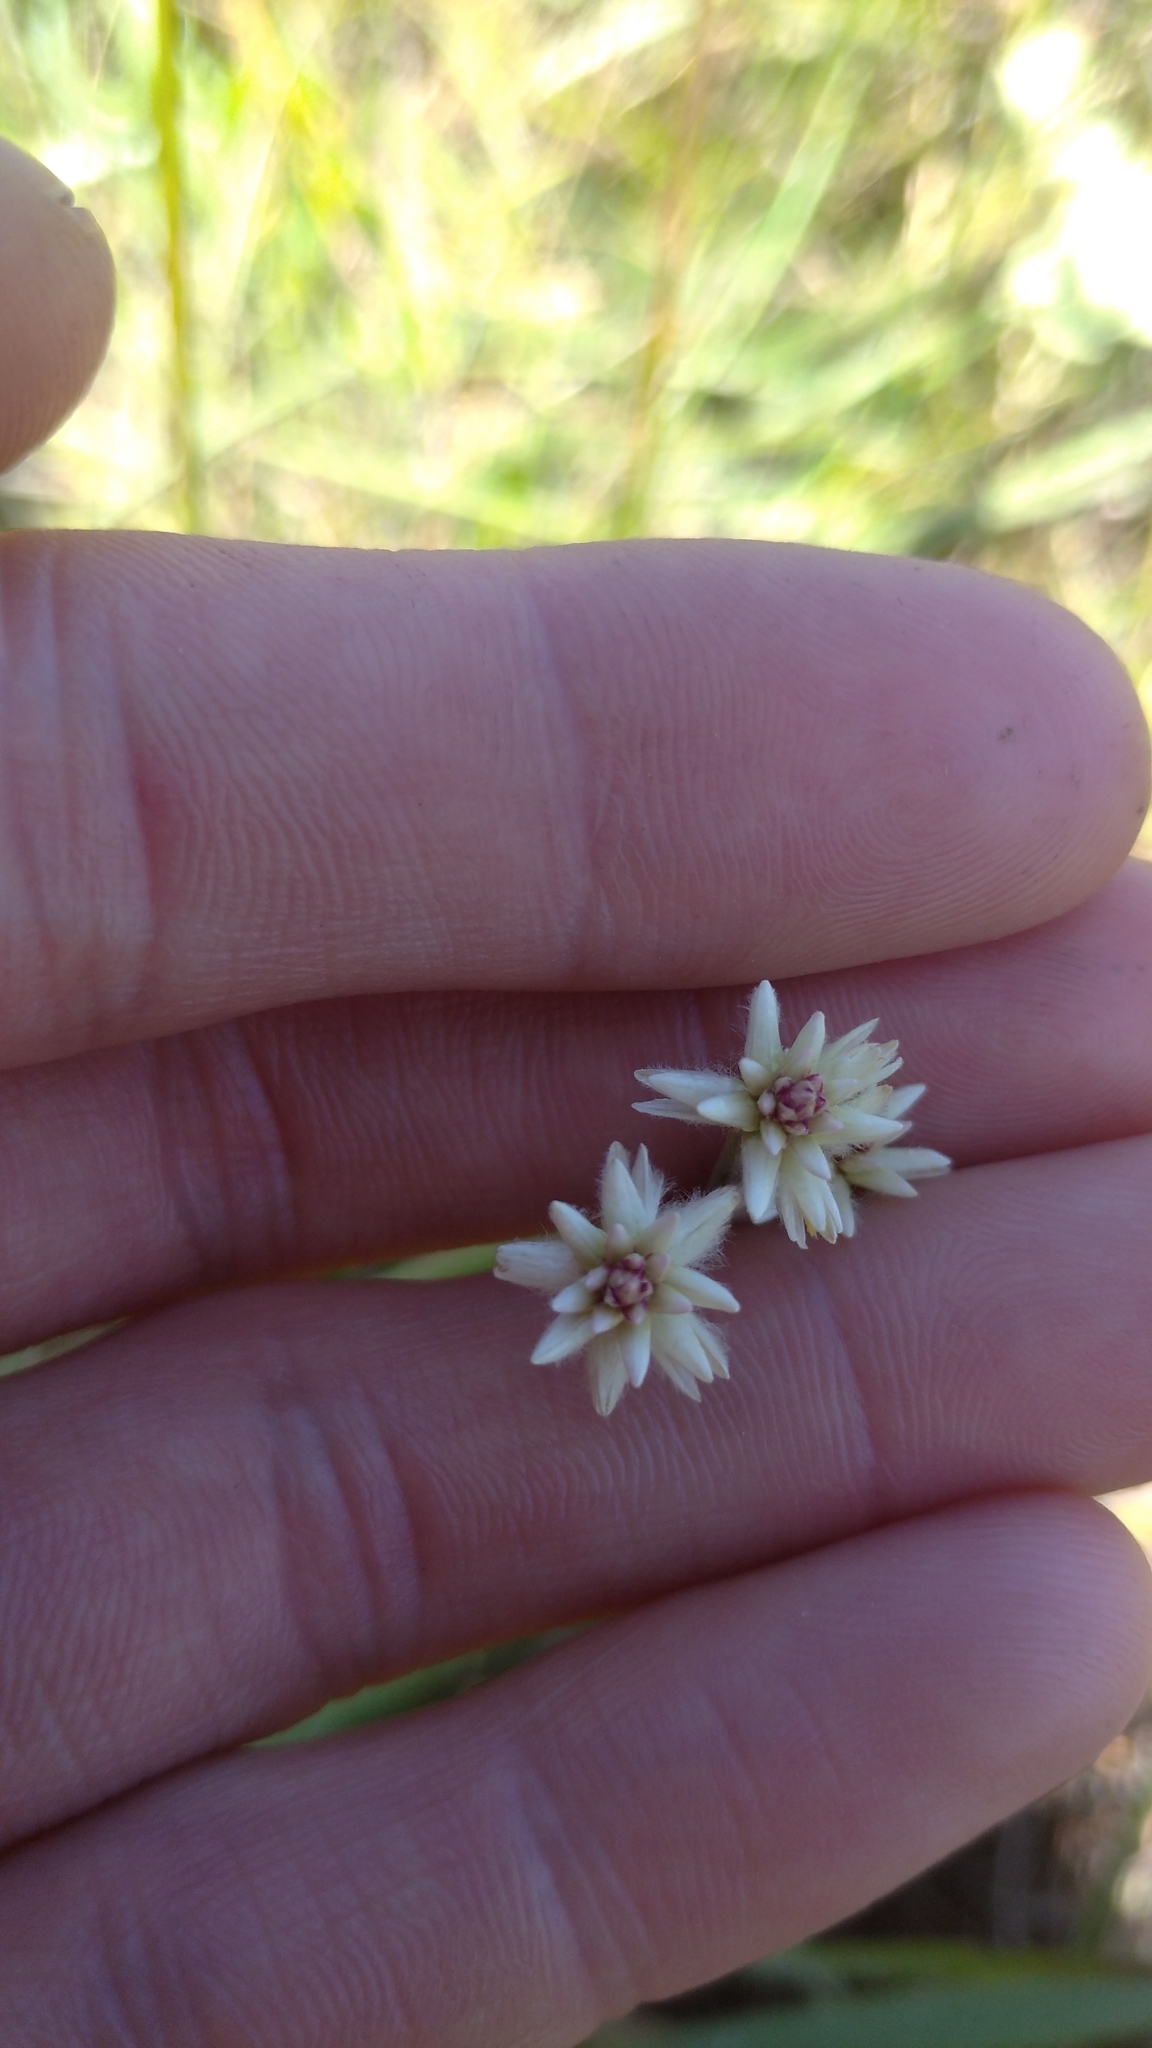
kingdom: Plantae
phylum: Tracheophyta
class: Magnoliopsida
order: Caryophyllales
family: Amaranthaceae
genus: Pfaffia
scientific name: Pfaffia tuberosa
